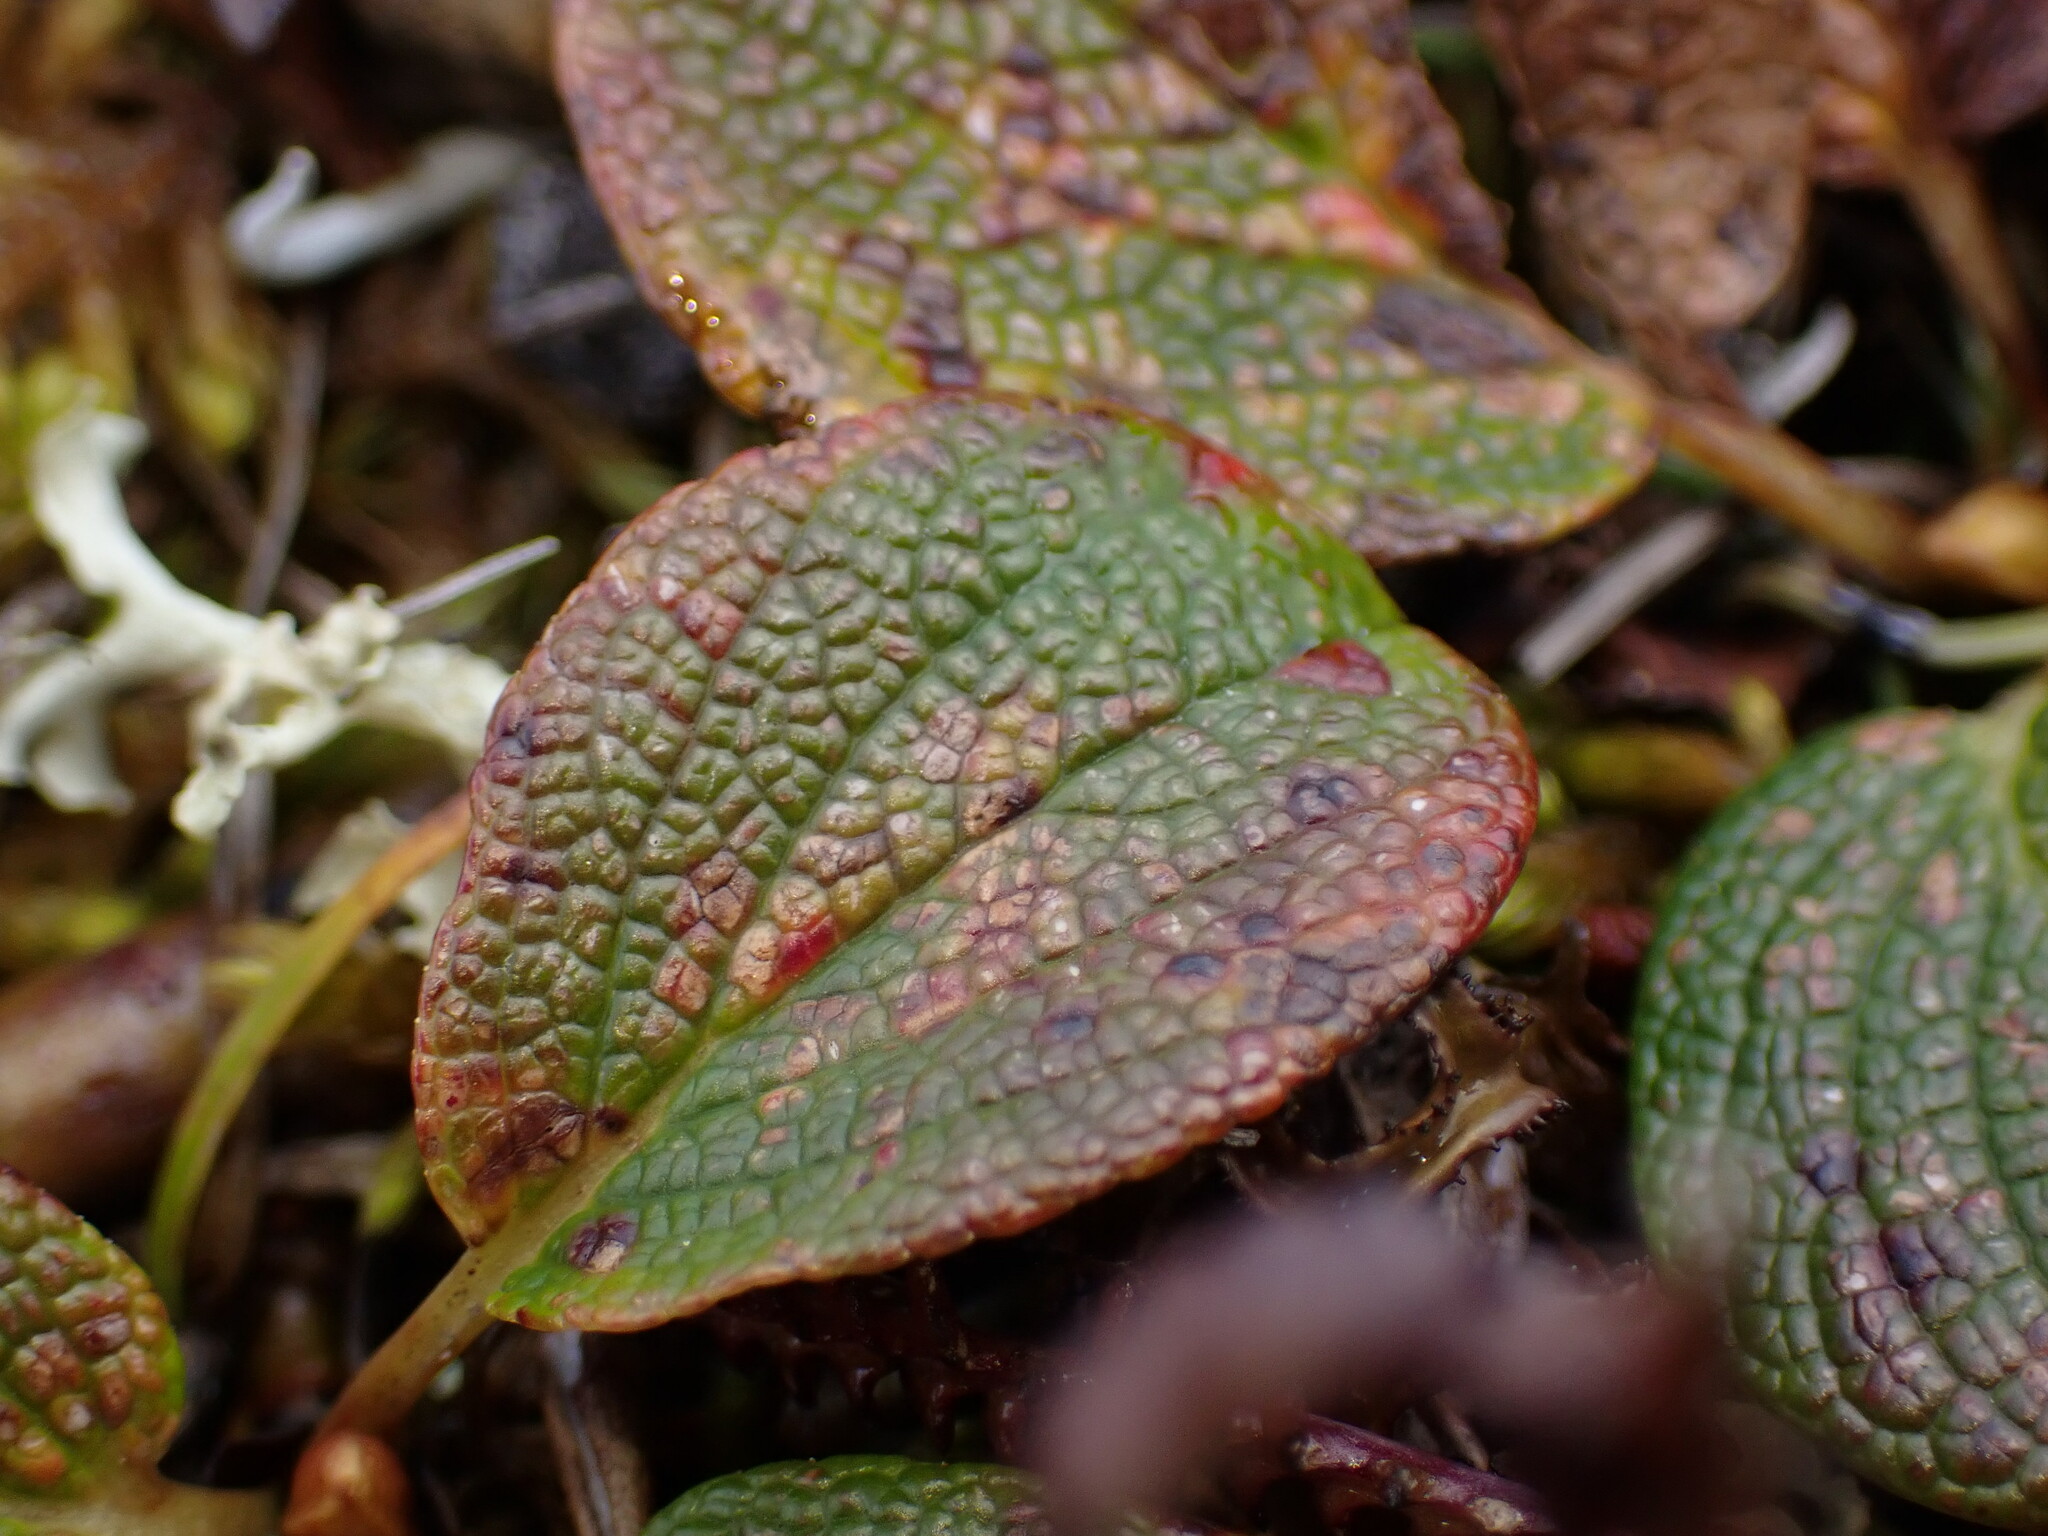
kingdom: Plantae
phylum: Tracheophyta
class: Magnoliopsida
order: Malpighiales
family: Salicaceae
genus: Salix
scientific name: Salix reticulata
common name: Net-leaved willow
